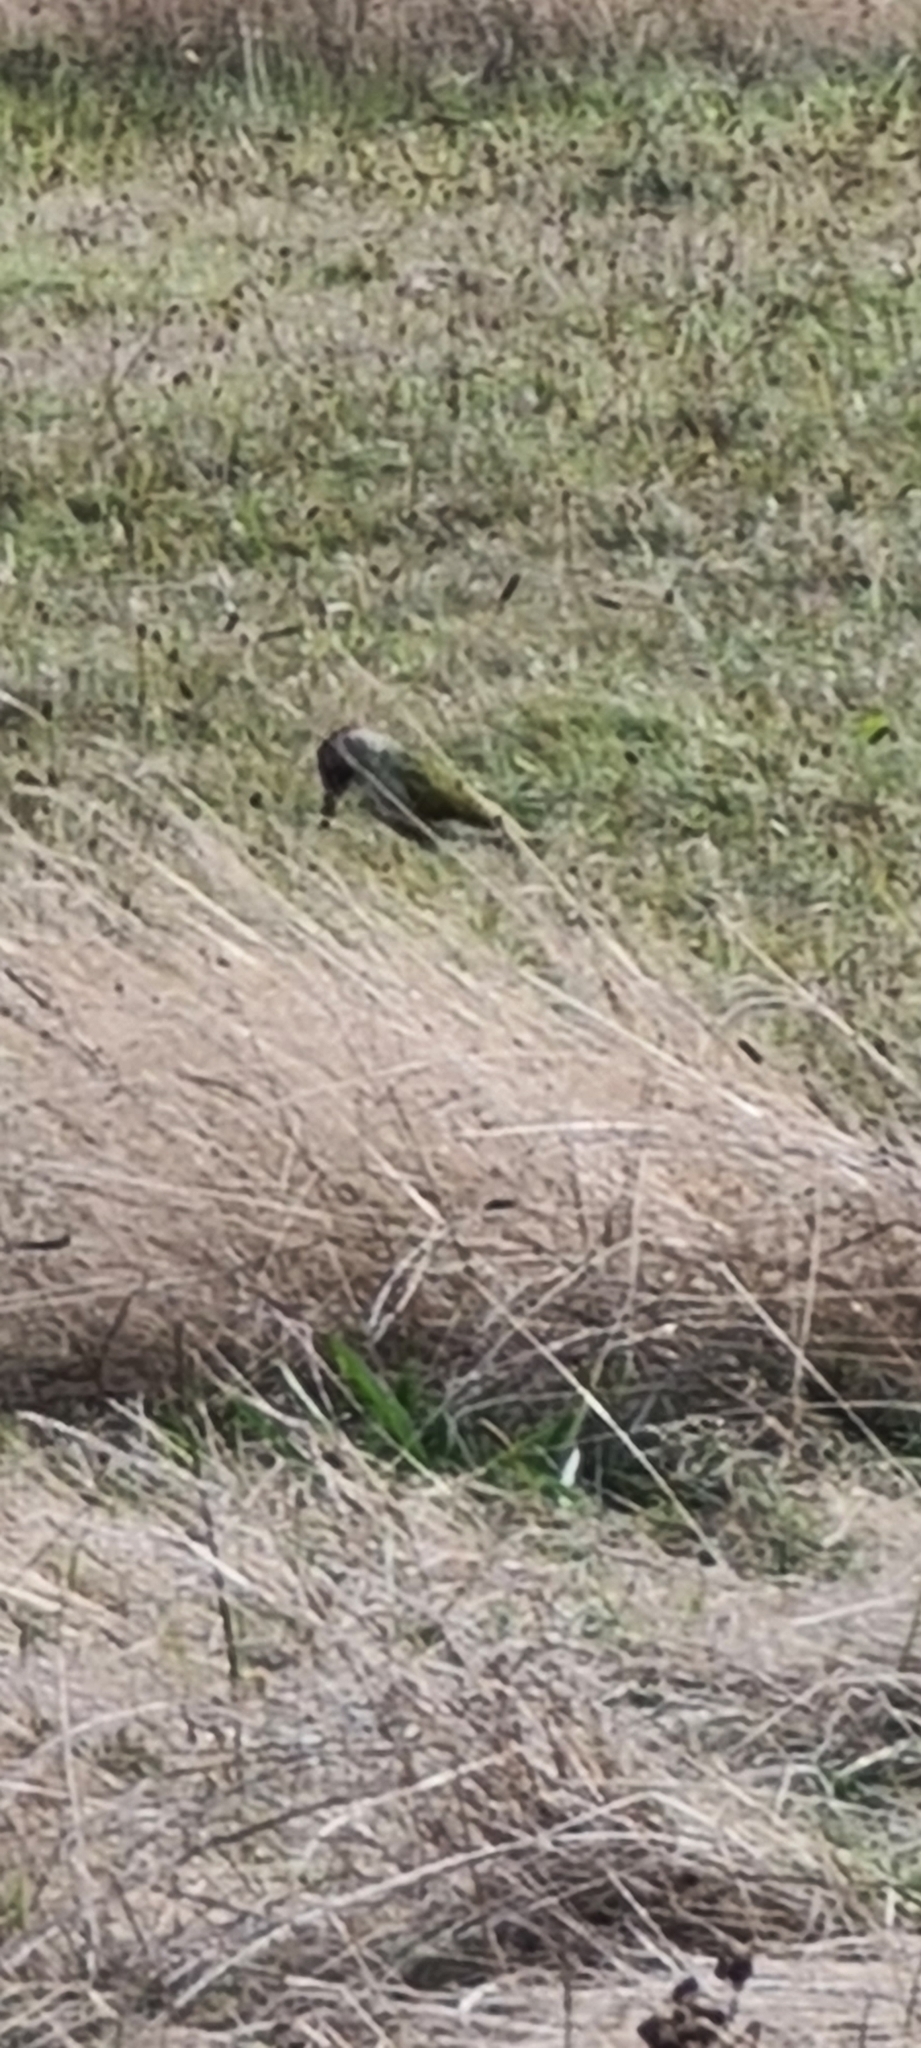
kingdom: Animalia
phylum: Chordata
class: Aves
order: Piciformes
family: Picidae
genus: Picus
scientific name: Picus viridis
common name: European green woodpecker
